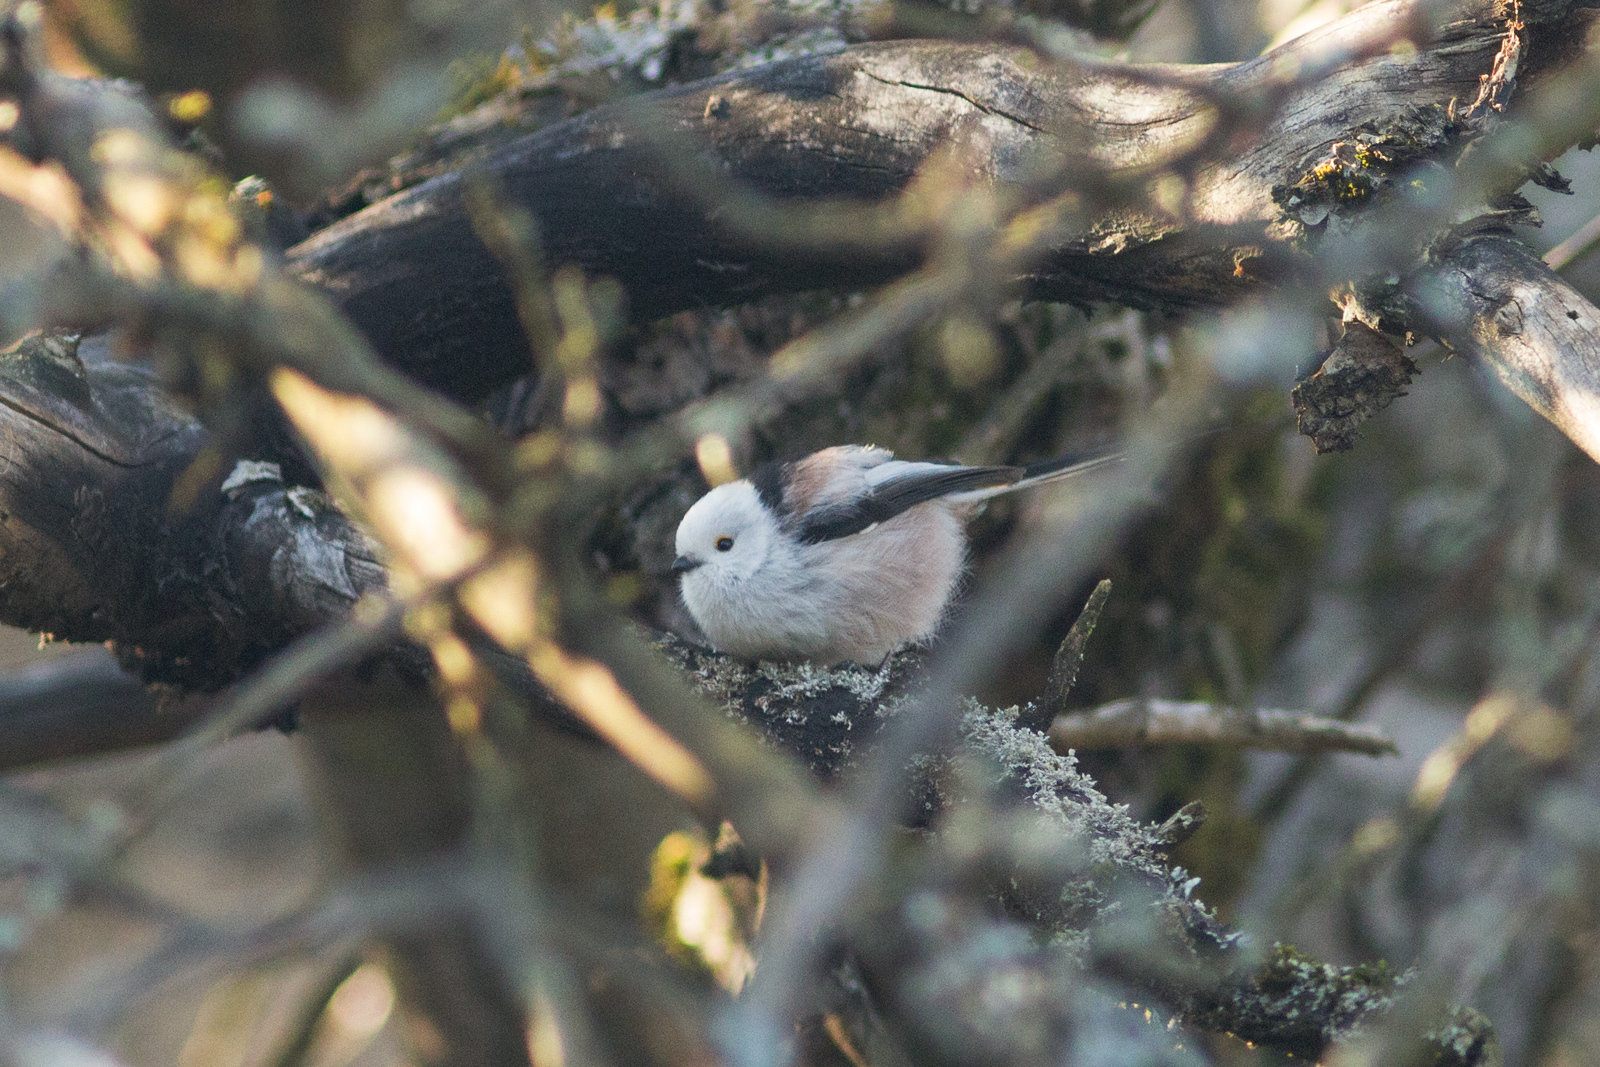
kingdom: Animalia
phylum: Chordata
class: Aves
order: Passeriformes
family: Aegithalidae
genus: Aegithalos
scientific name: Aegithalos caudatus
